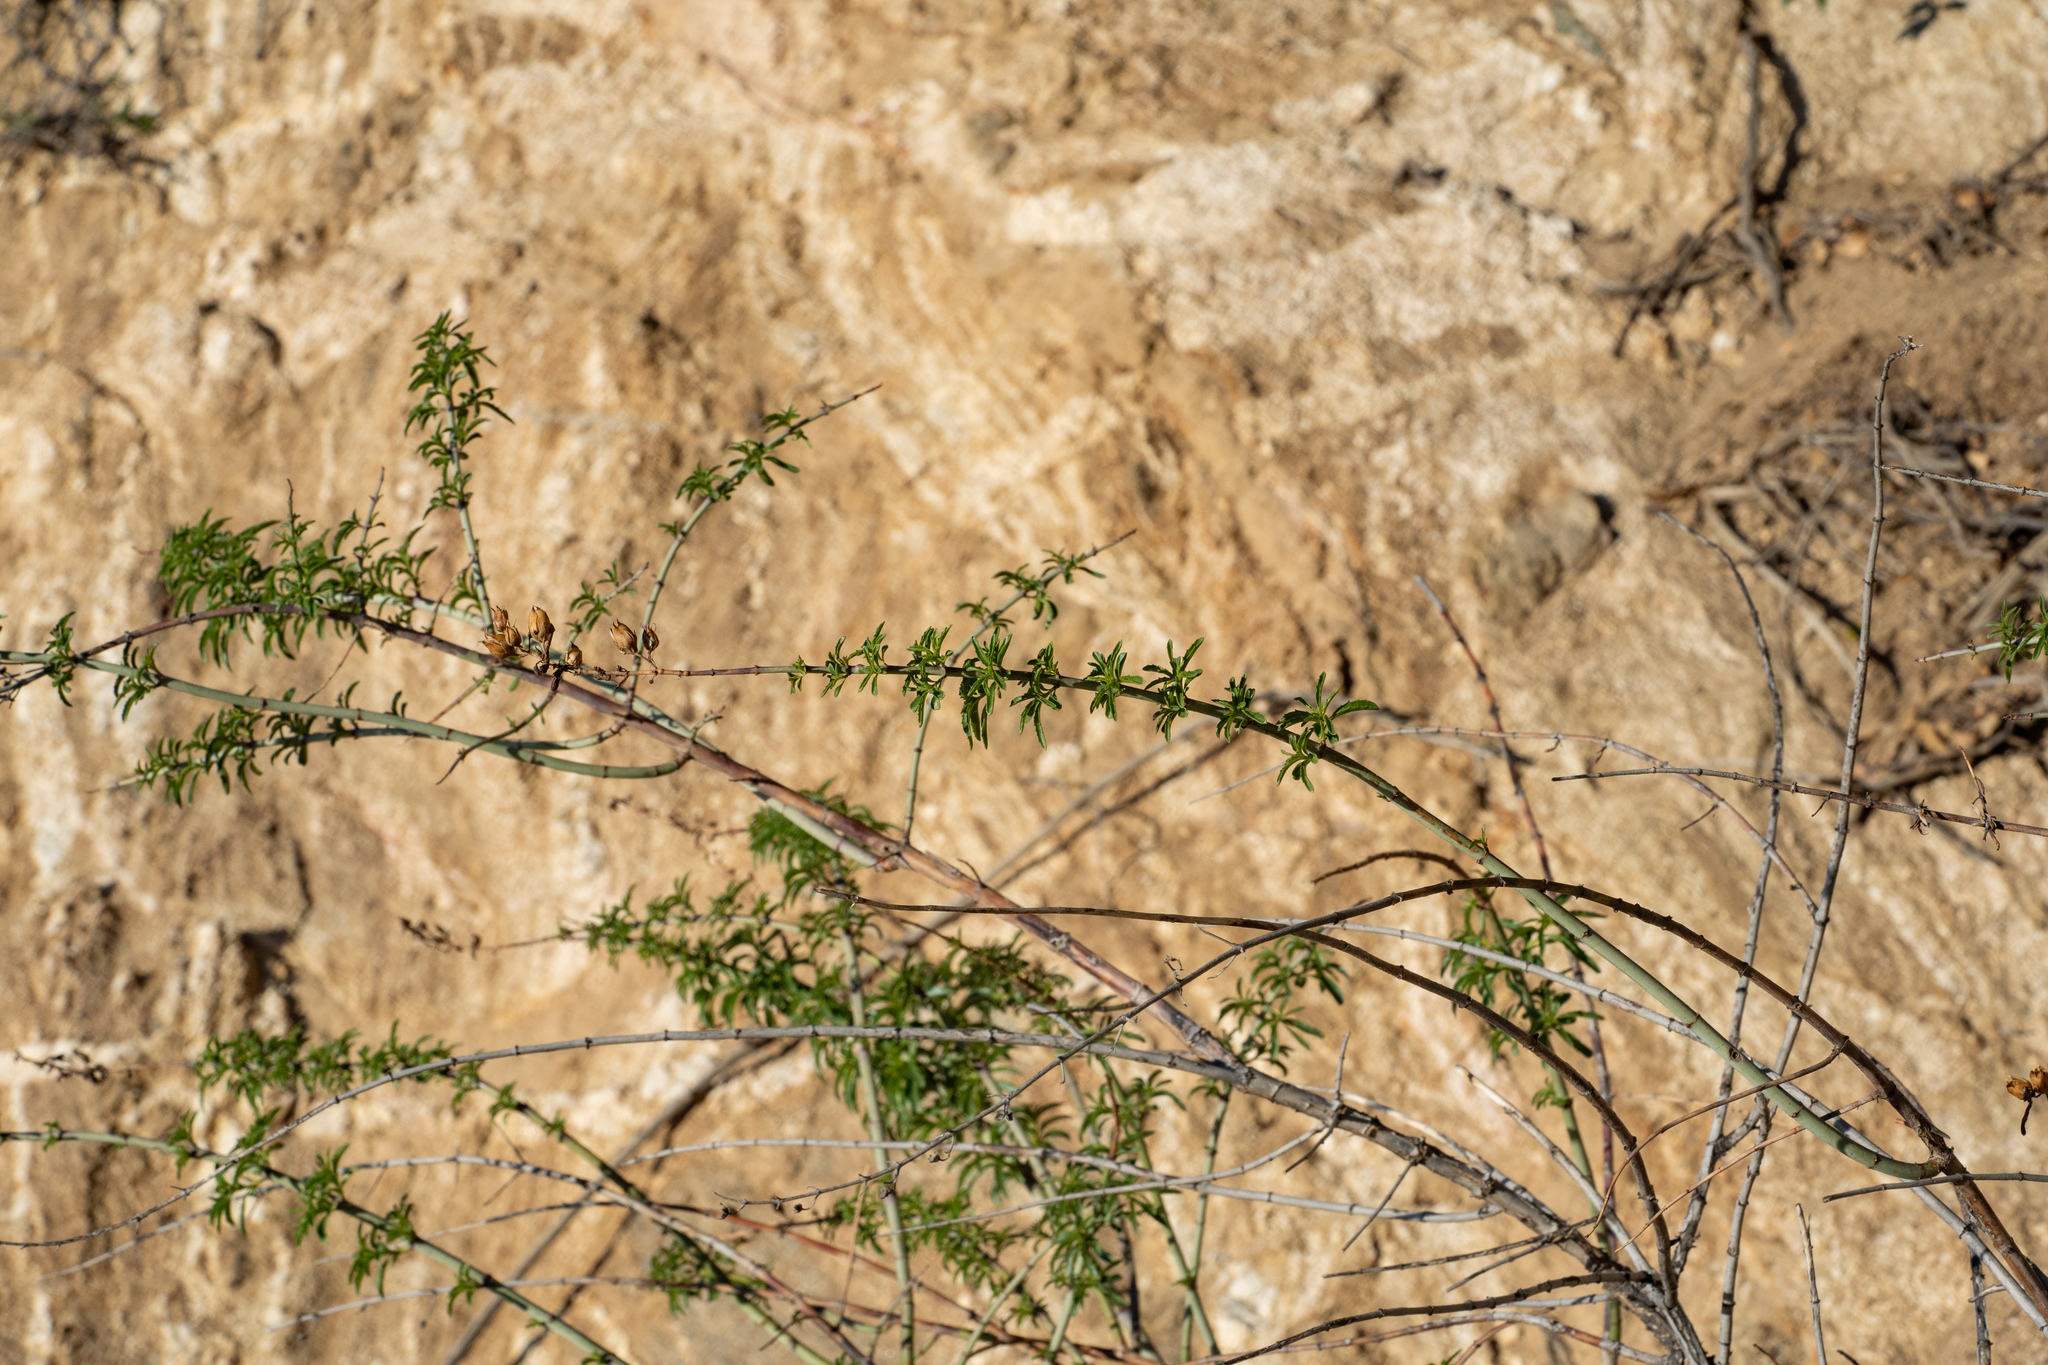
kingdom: Plantae
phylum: Tracheophyta
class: Magnoliopsida
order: Lamiales
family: Plantaginaceae
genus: Keckiella
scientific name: Keckiella ternata
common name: Scarlet keckiella
